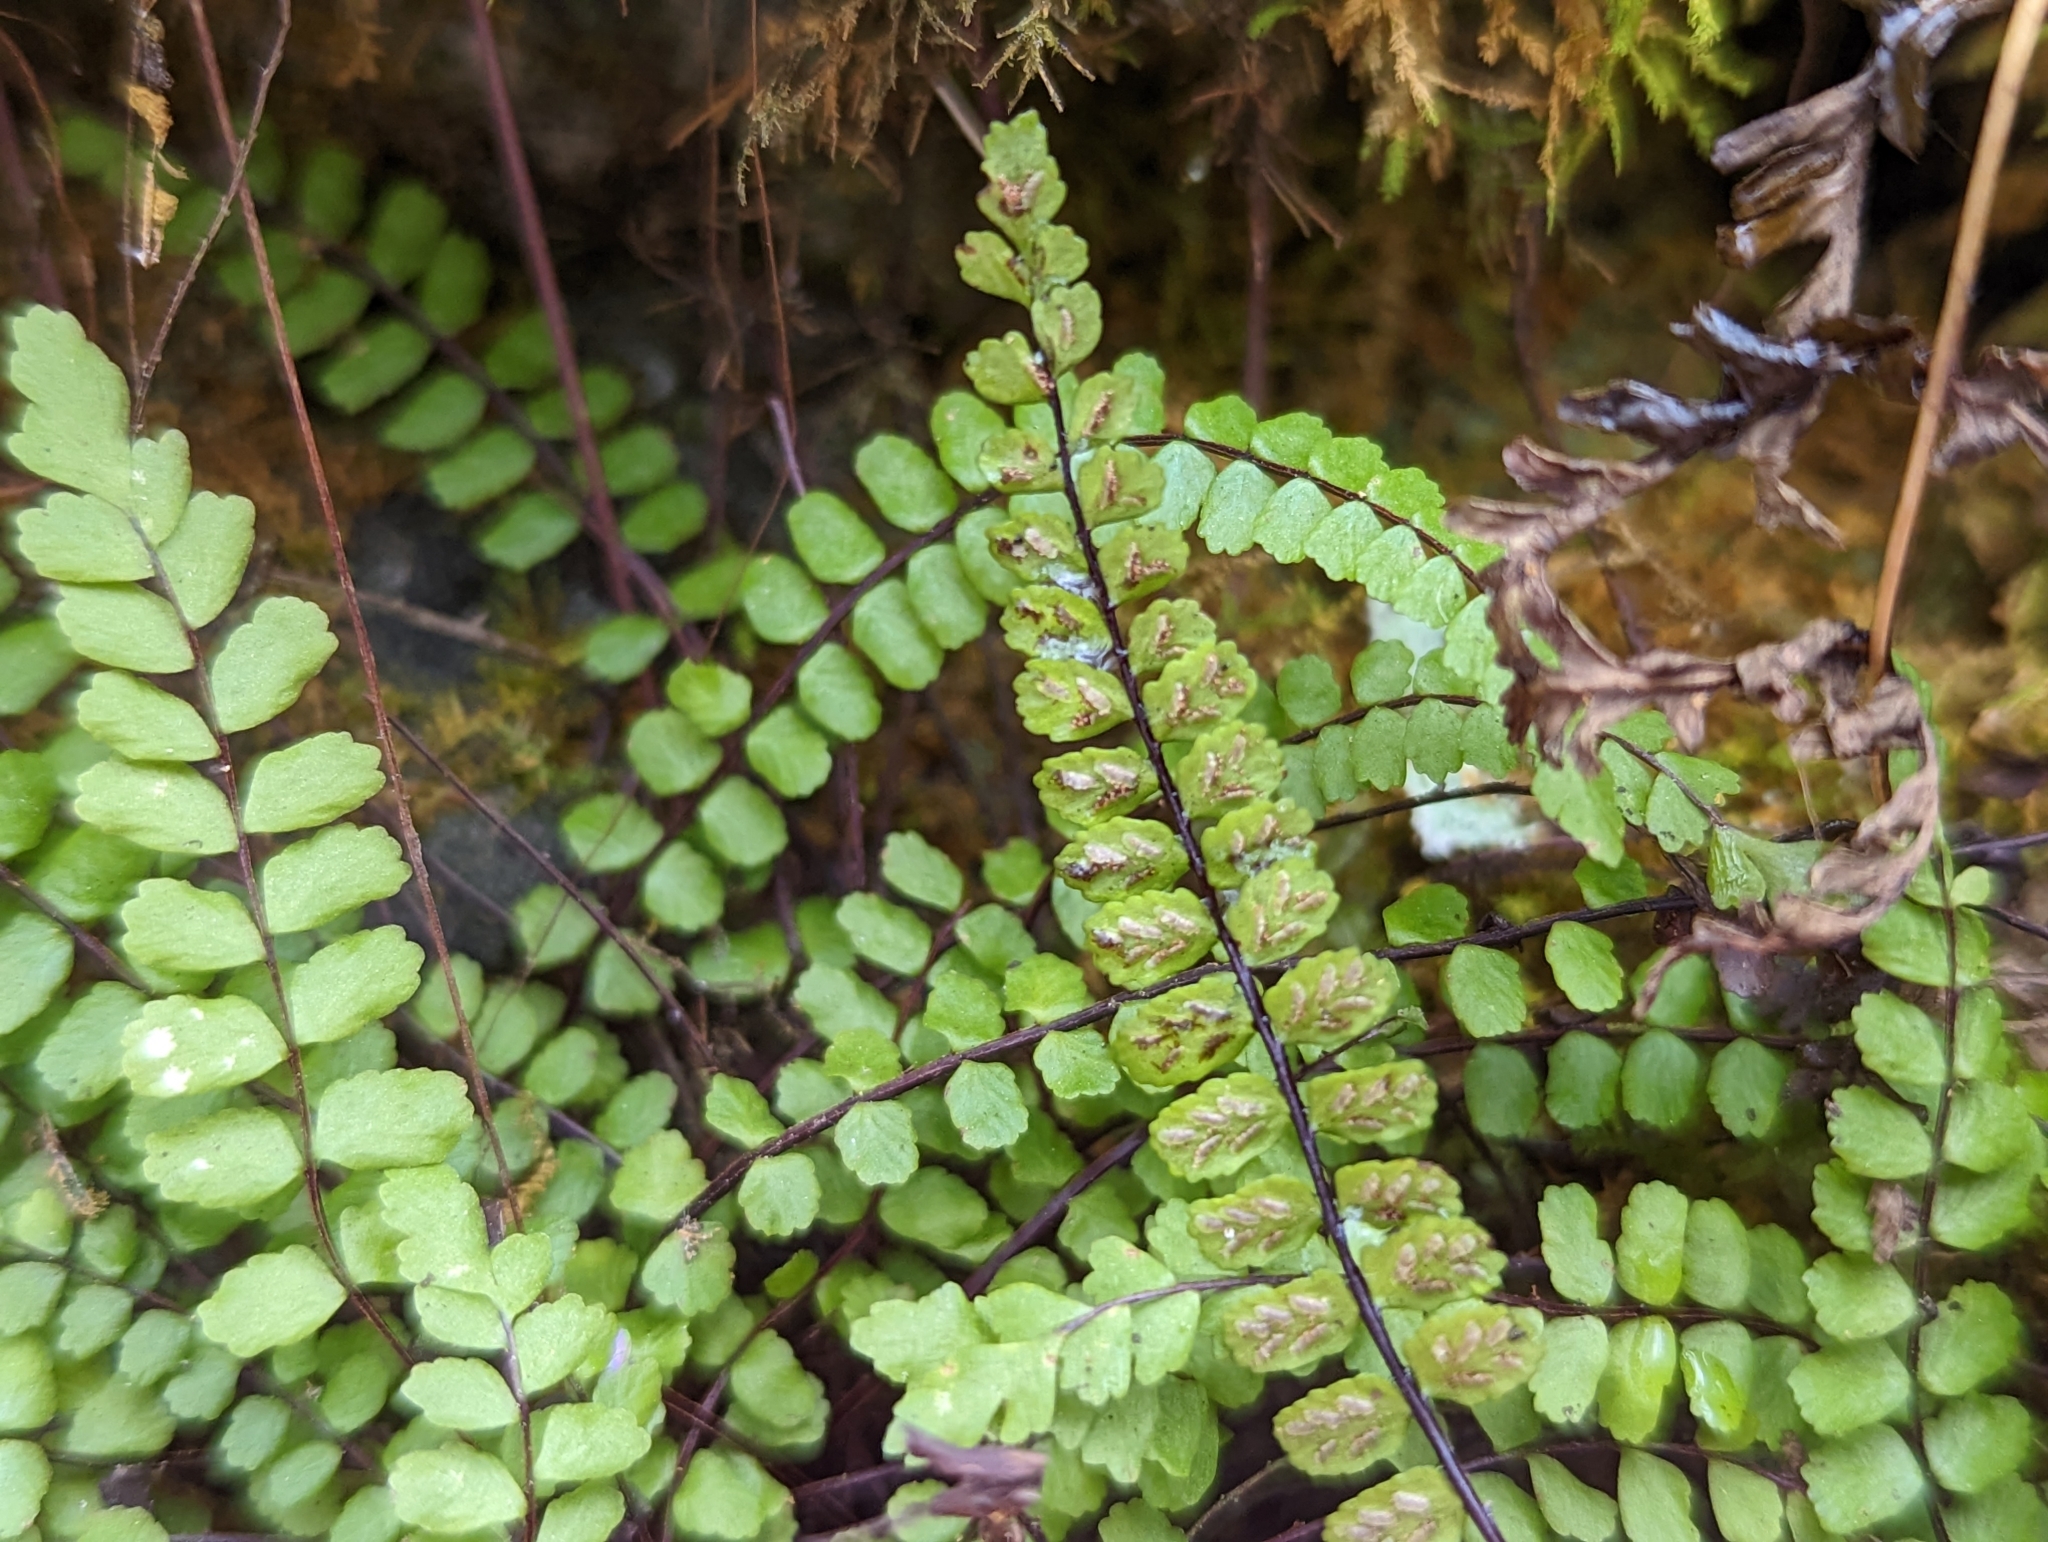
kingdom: Plantae
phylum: Tracheophyta
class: Polypodiopsida
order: Polypodiales
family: Aspleniaceae
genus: Asplenium
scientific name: Asplenium trichomanes
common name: Maidenhair spleenwort
